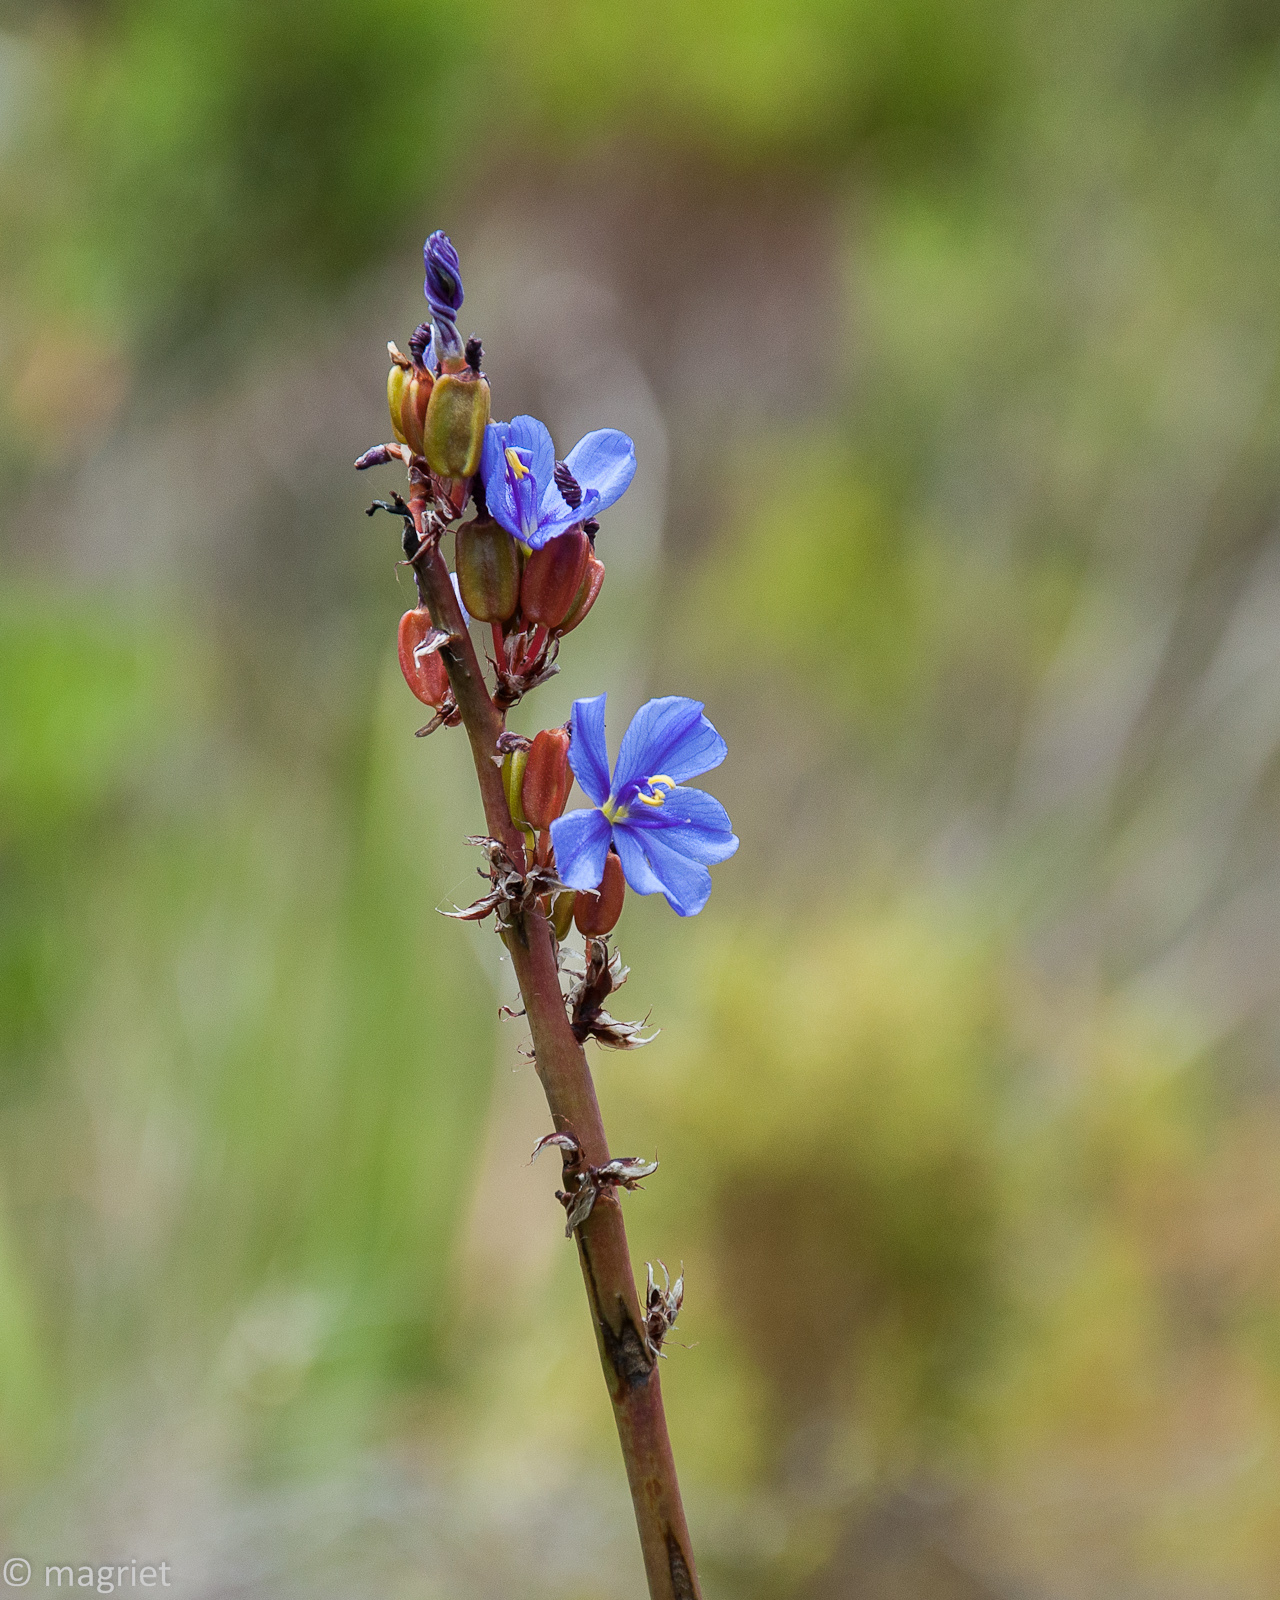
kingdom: Plantae
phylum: Tracheophyta
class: Liliopsida
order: Asparagales
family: Iridaceae
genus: Aristea
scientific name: Aristea capitata
